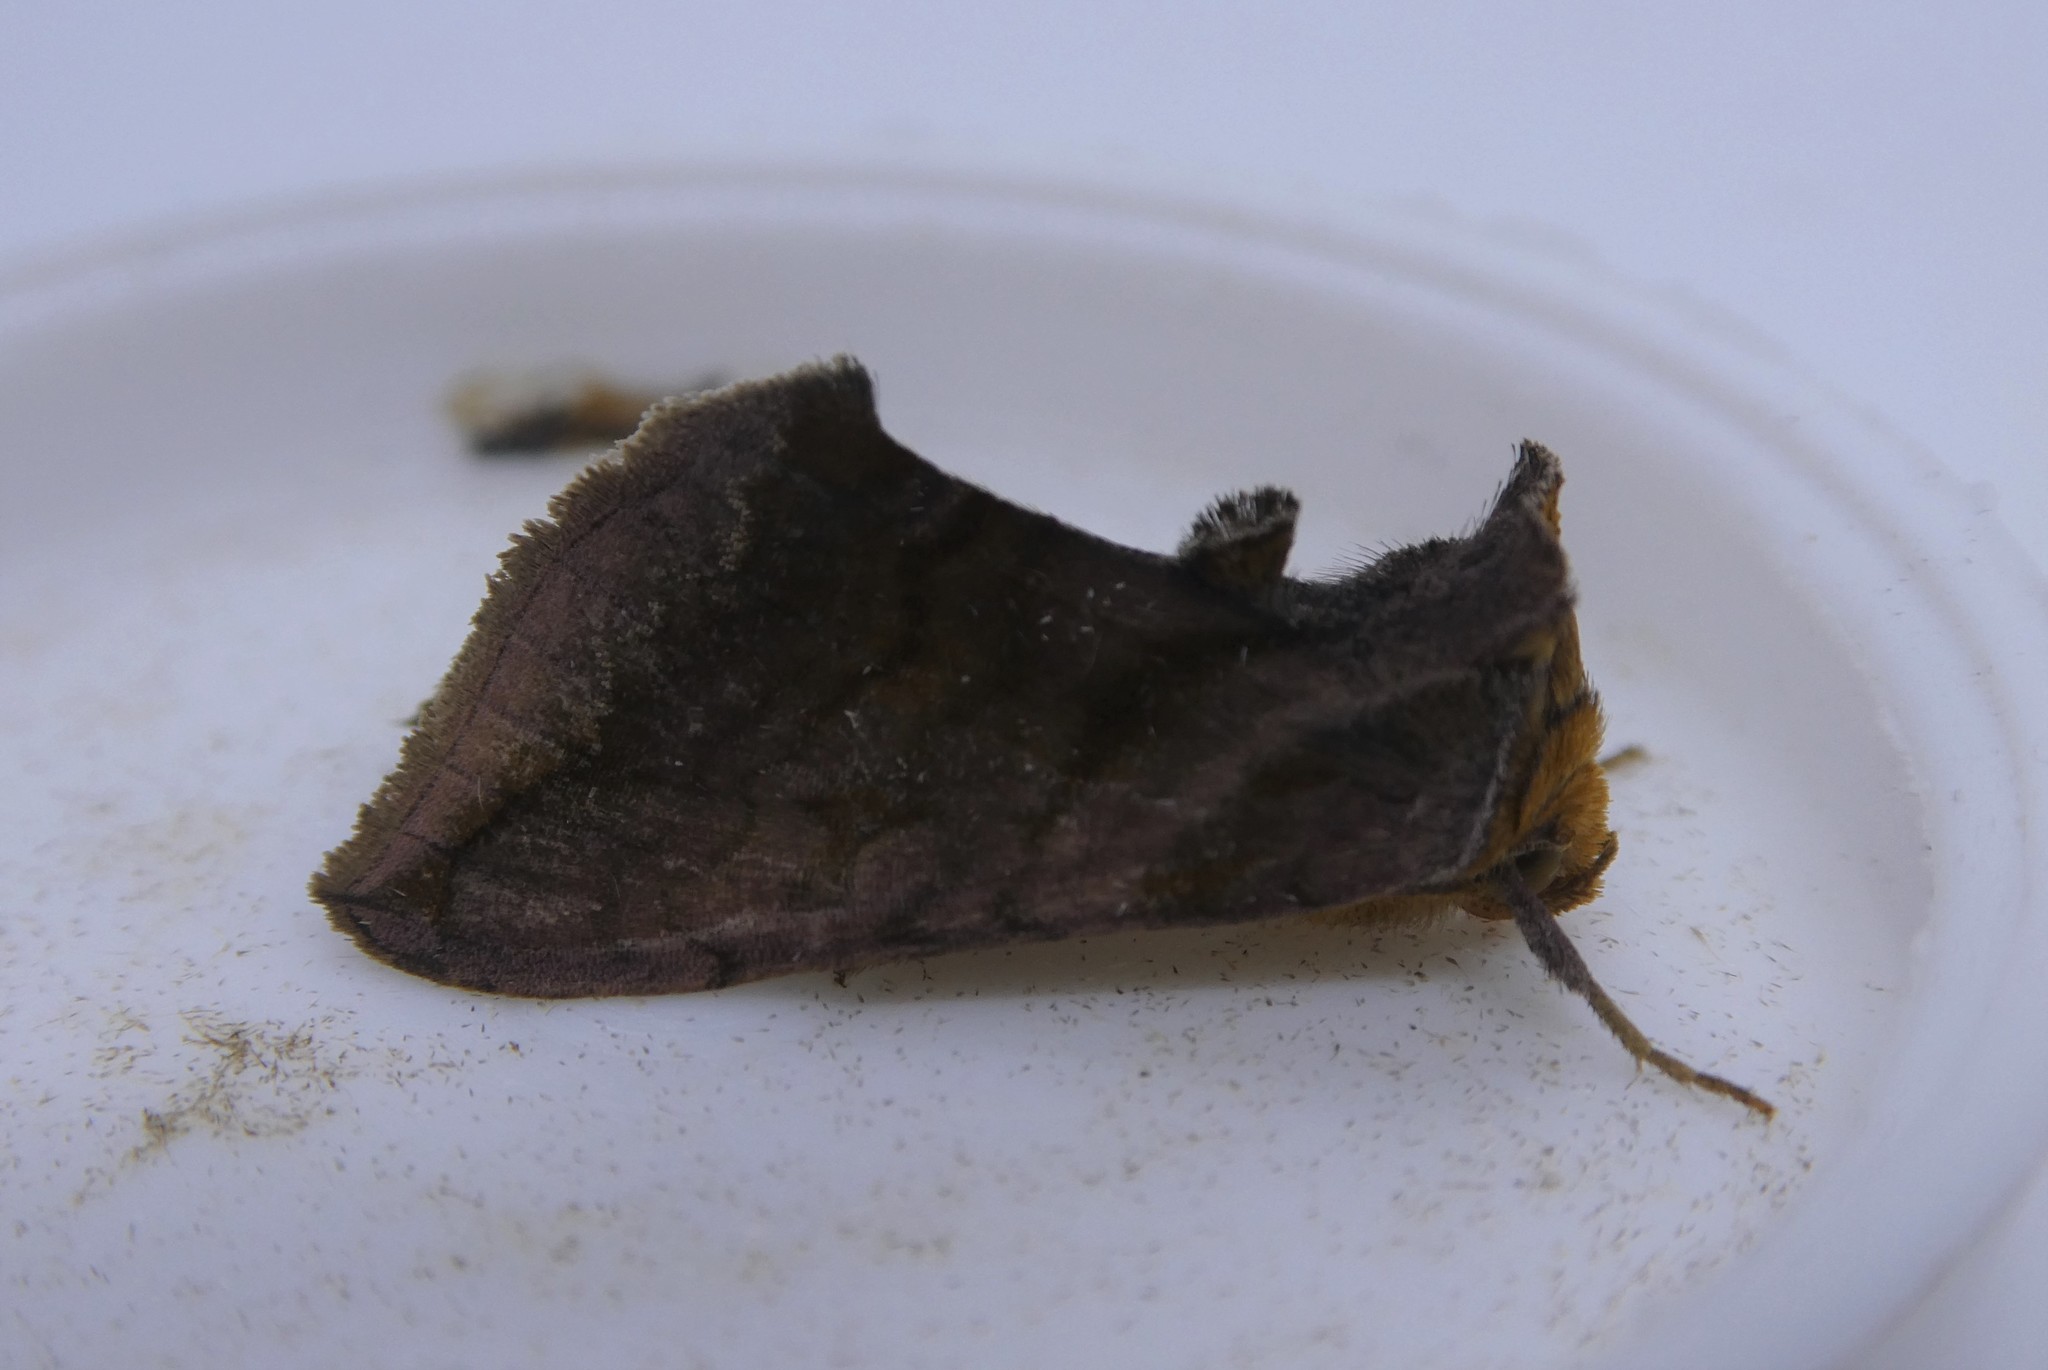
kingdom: Animalia
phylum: Arthropoda
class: Insecta
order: Lepidoptera
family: Noctuidae
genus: Allagrapha
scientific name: Allagrapha aerea
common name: Unspotted looper moth
